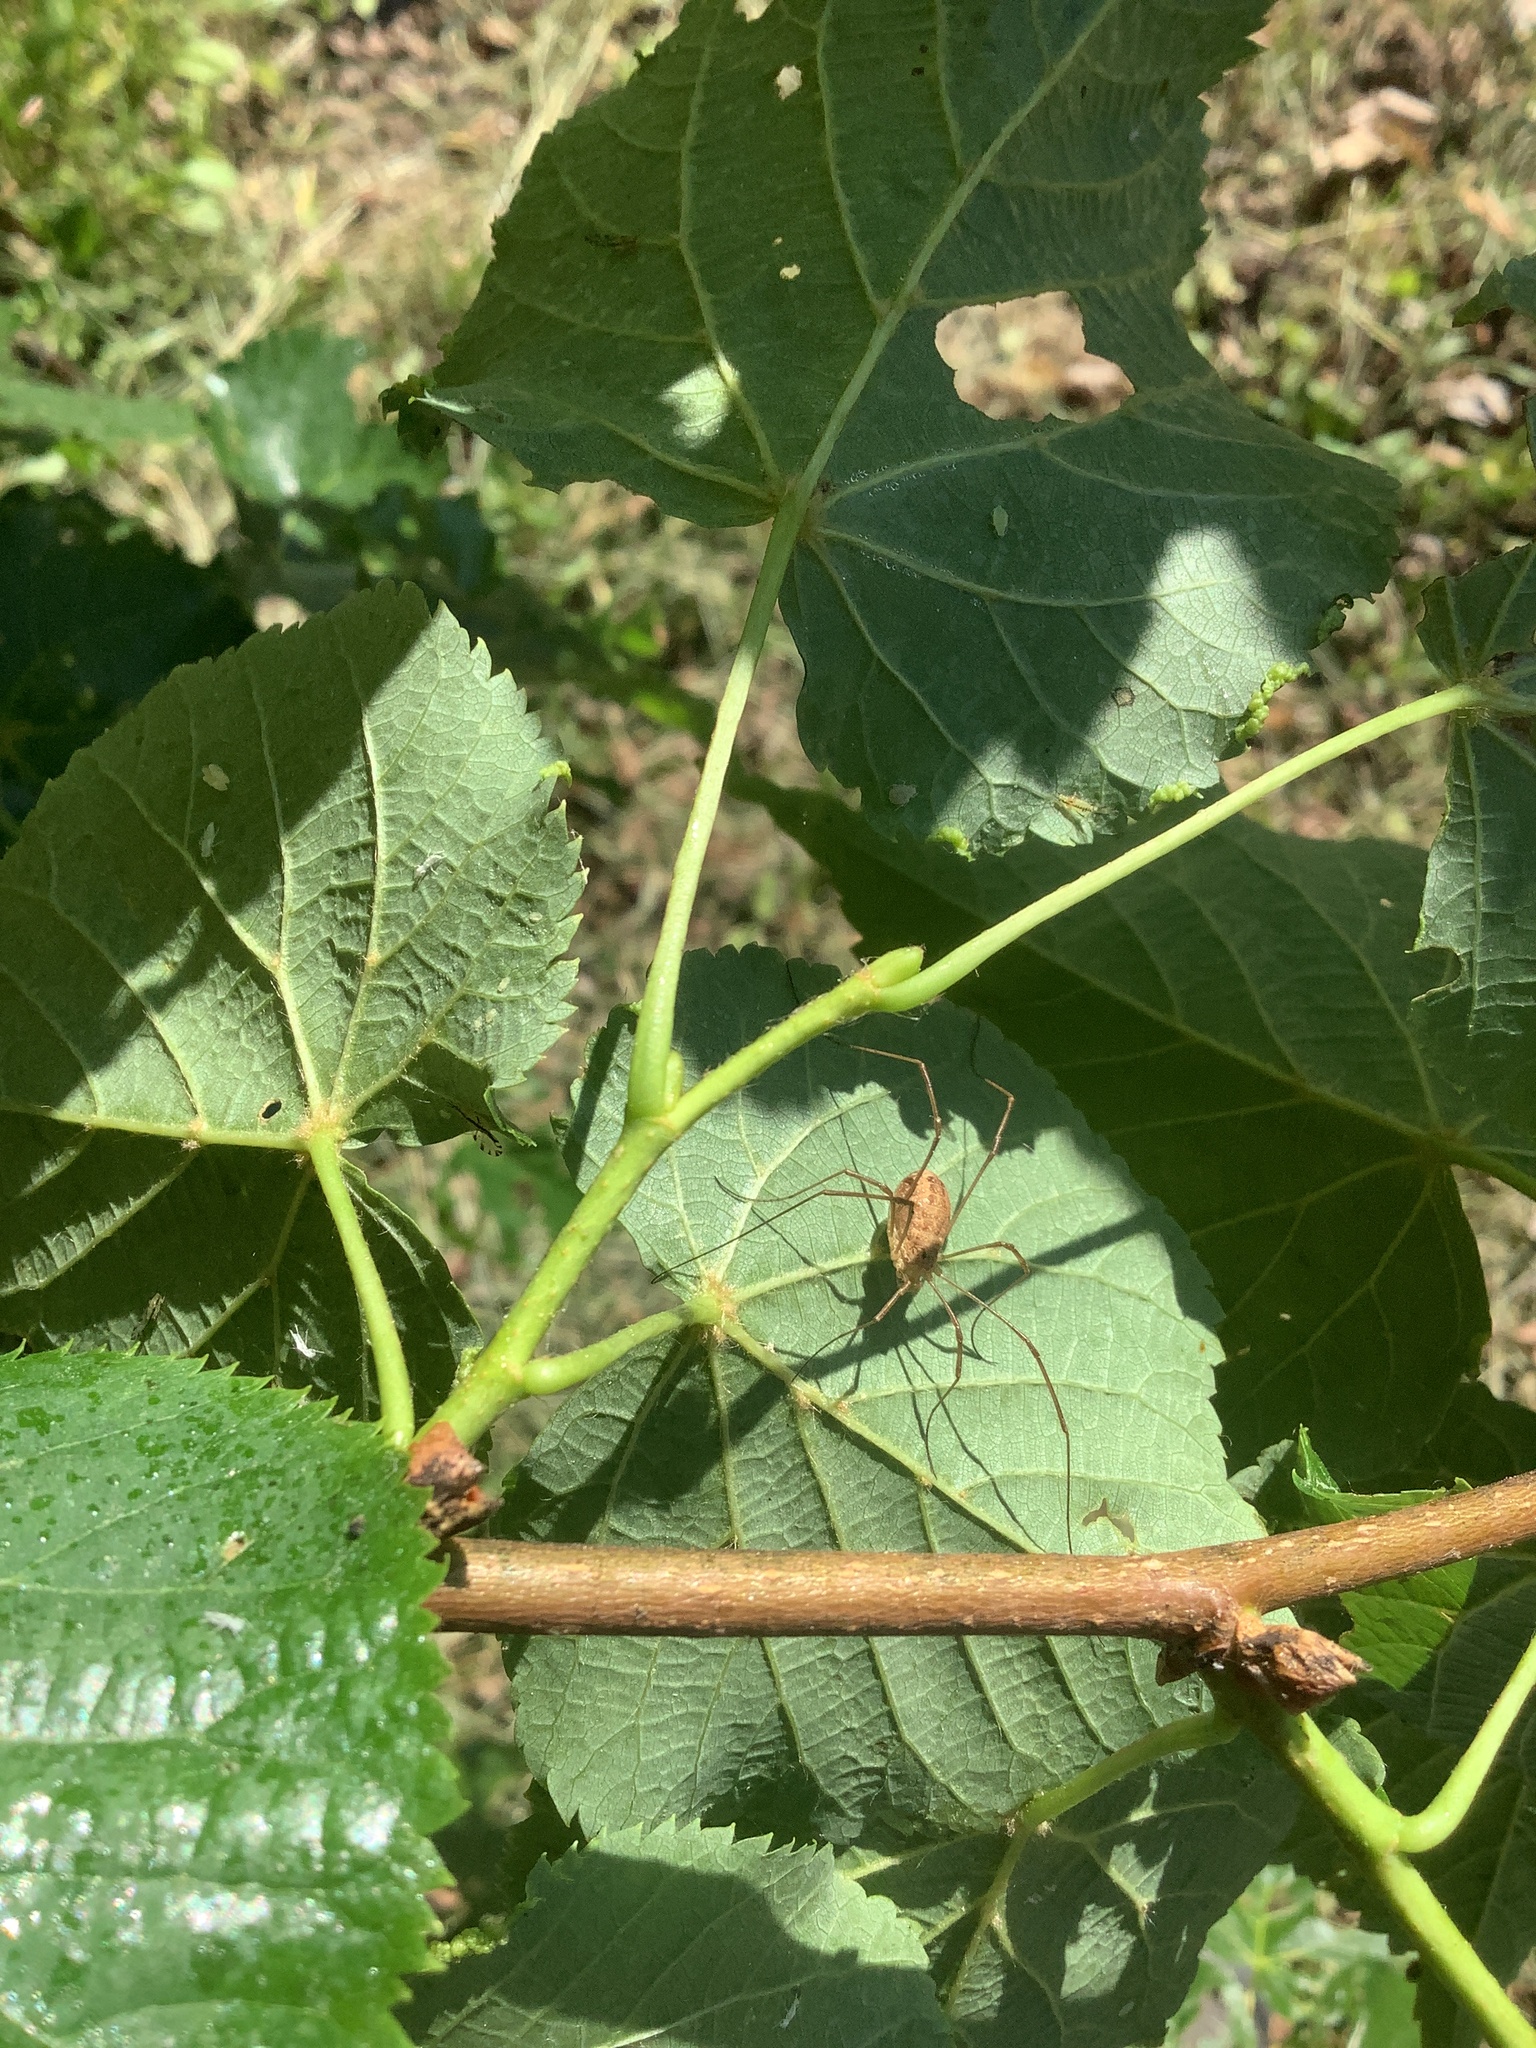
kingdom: Animalia
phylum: Arthropoda
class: Arachnida
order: Opiliones
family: Phalangiidae
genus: Rilaena
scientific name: Rilaena triangularis
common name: Spring harvestman
